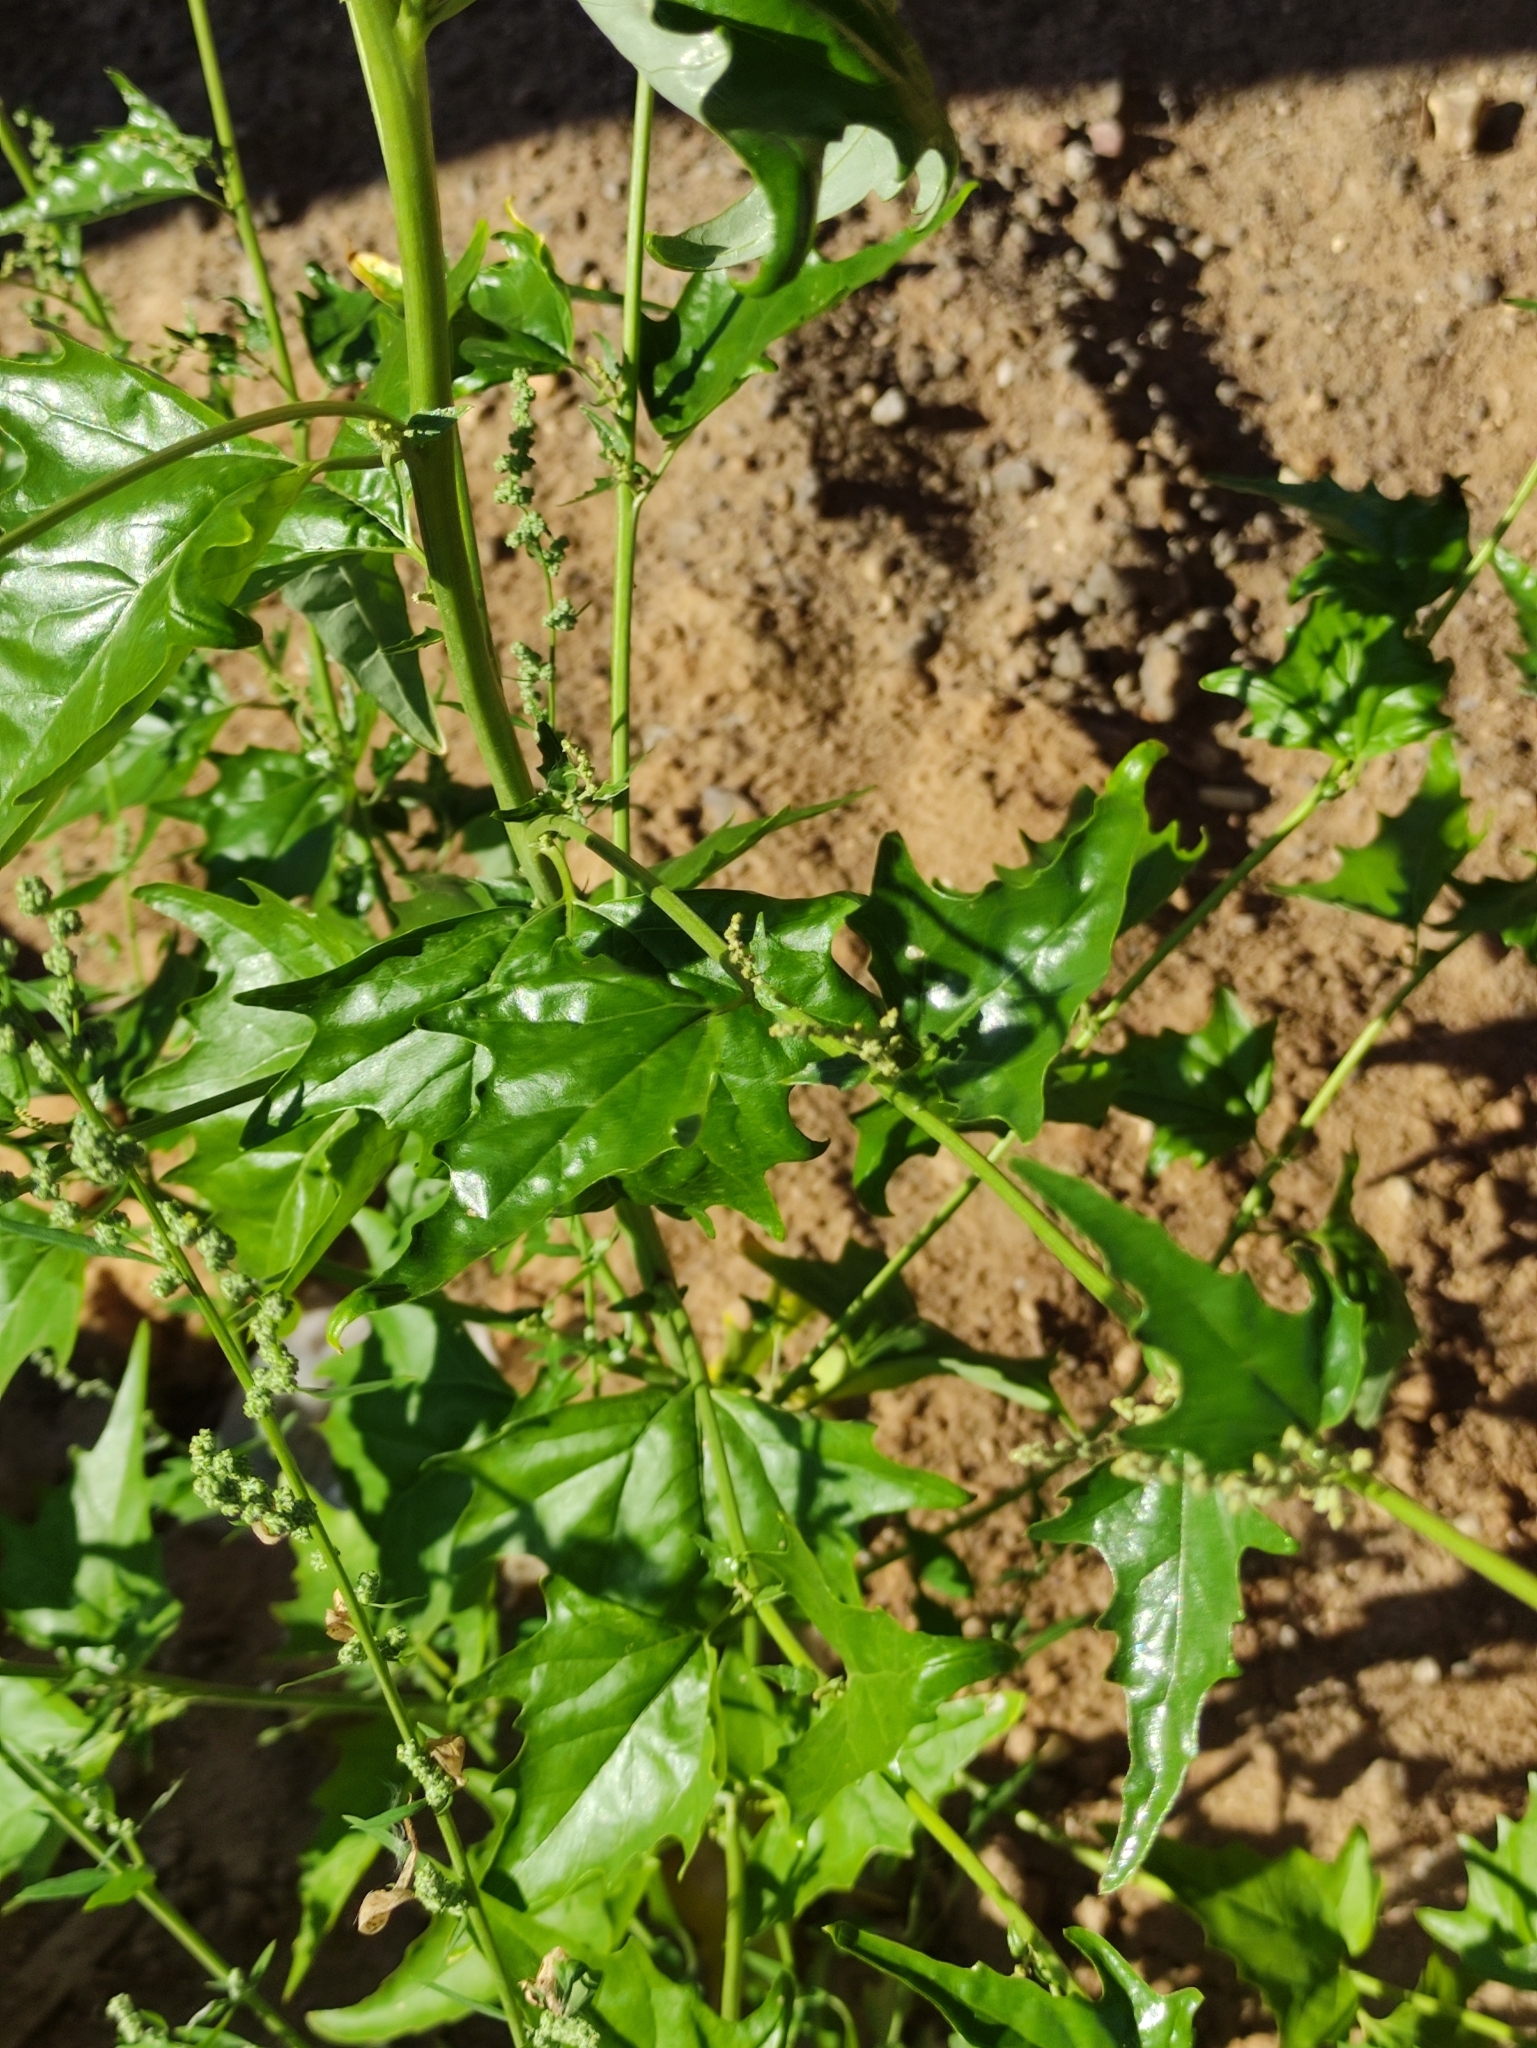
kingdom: Plantae
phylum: Tracheophyta
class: Magnoliopsida
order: Caryophyllales
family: Amaranthaceae
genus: Atriplex
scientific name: Atriplex sagittata
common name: Purple orache
